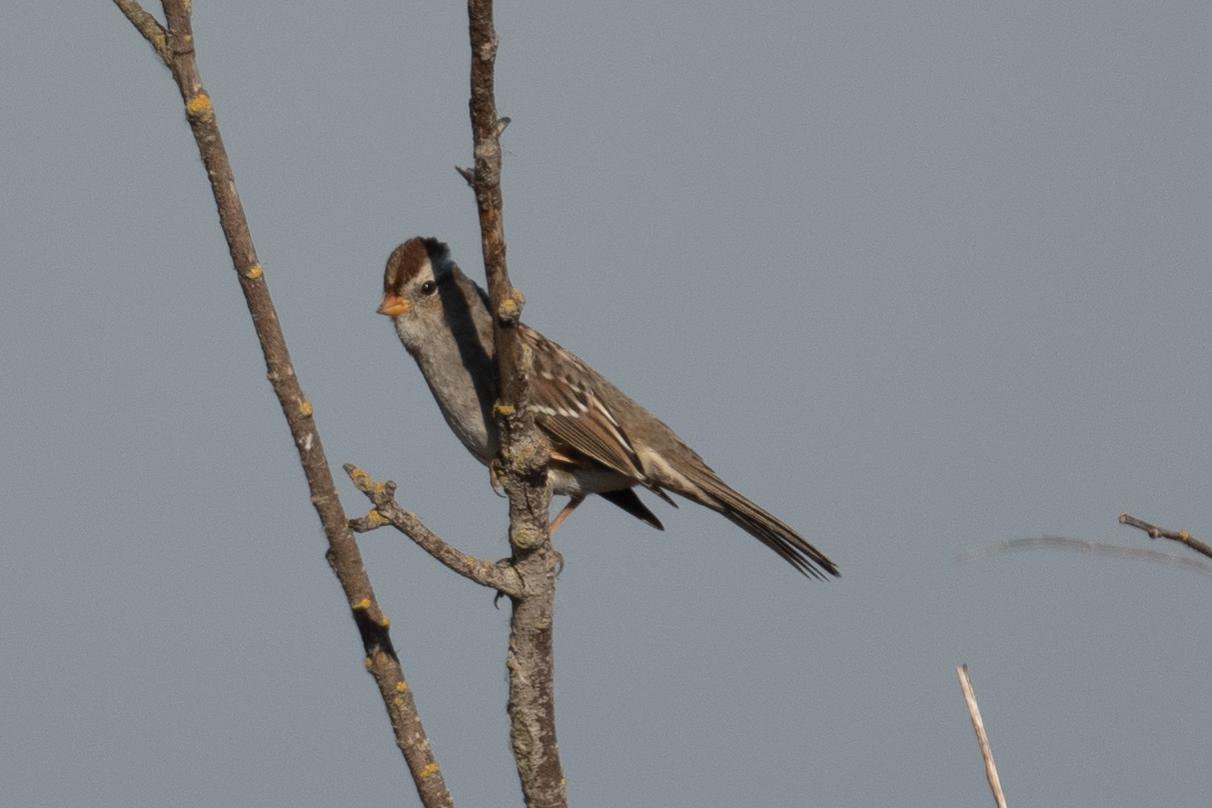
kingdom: Animalia
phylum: Chordata
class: Aves
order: Passeriformes
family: Passerellidae
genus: Zonotrichia
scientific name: Zonotrichia leucophrys
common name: White-crowned sparrow
